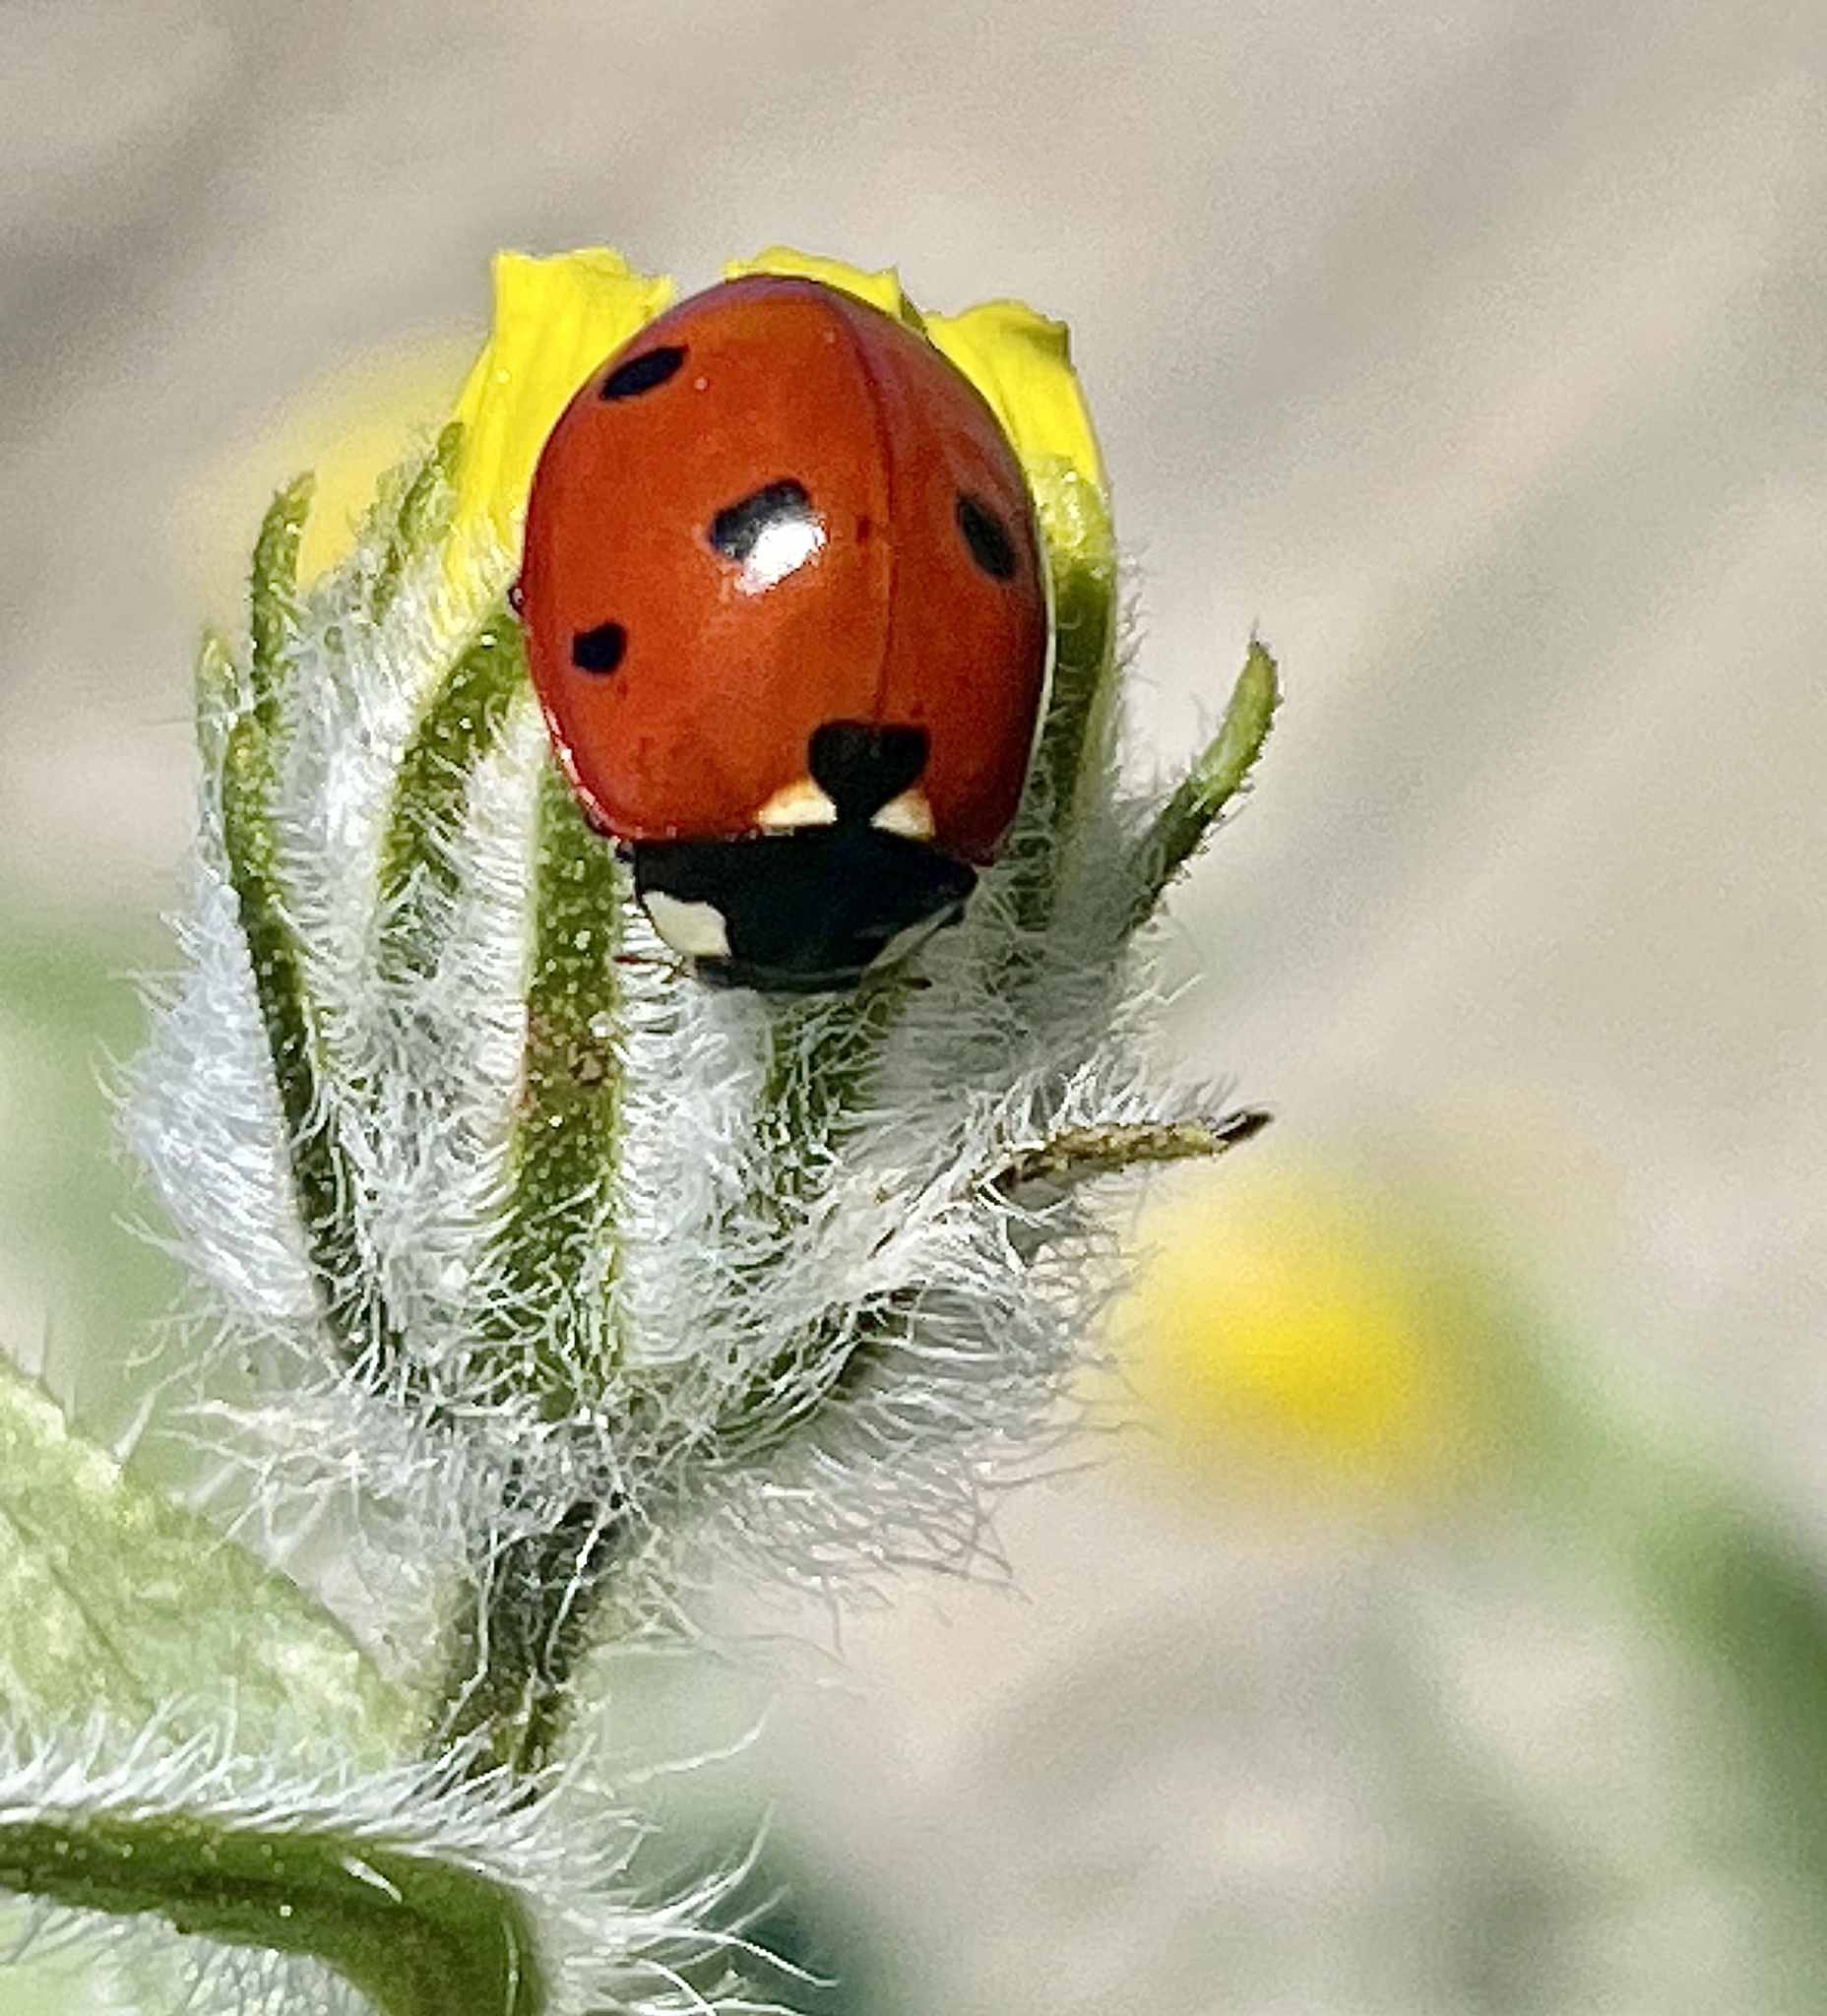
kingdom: Animalia
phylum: Arthropoda
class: Insecta
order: Coleoptera
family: Coccinellidae
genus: Coccinella
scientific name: Coccinella septempunctata
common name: Sevenspotted lady beetle
